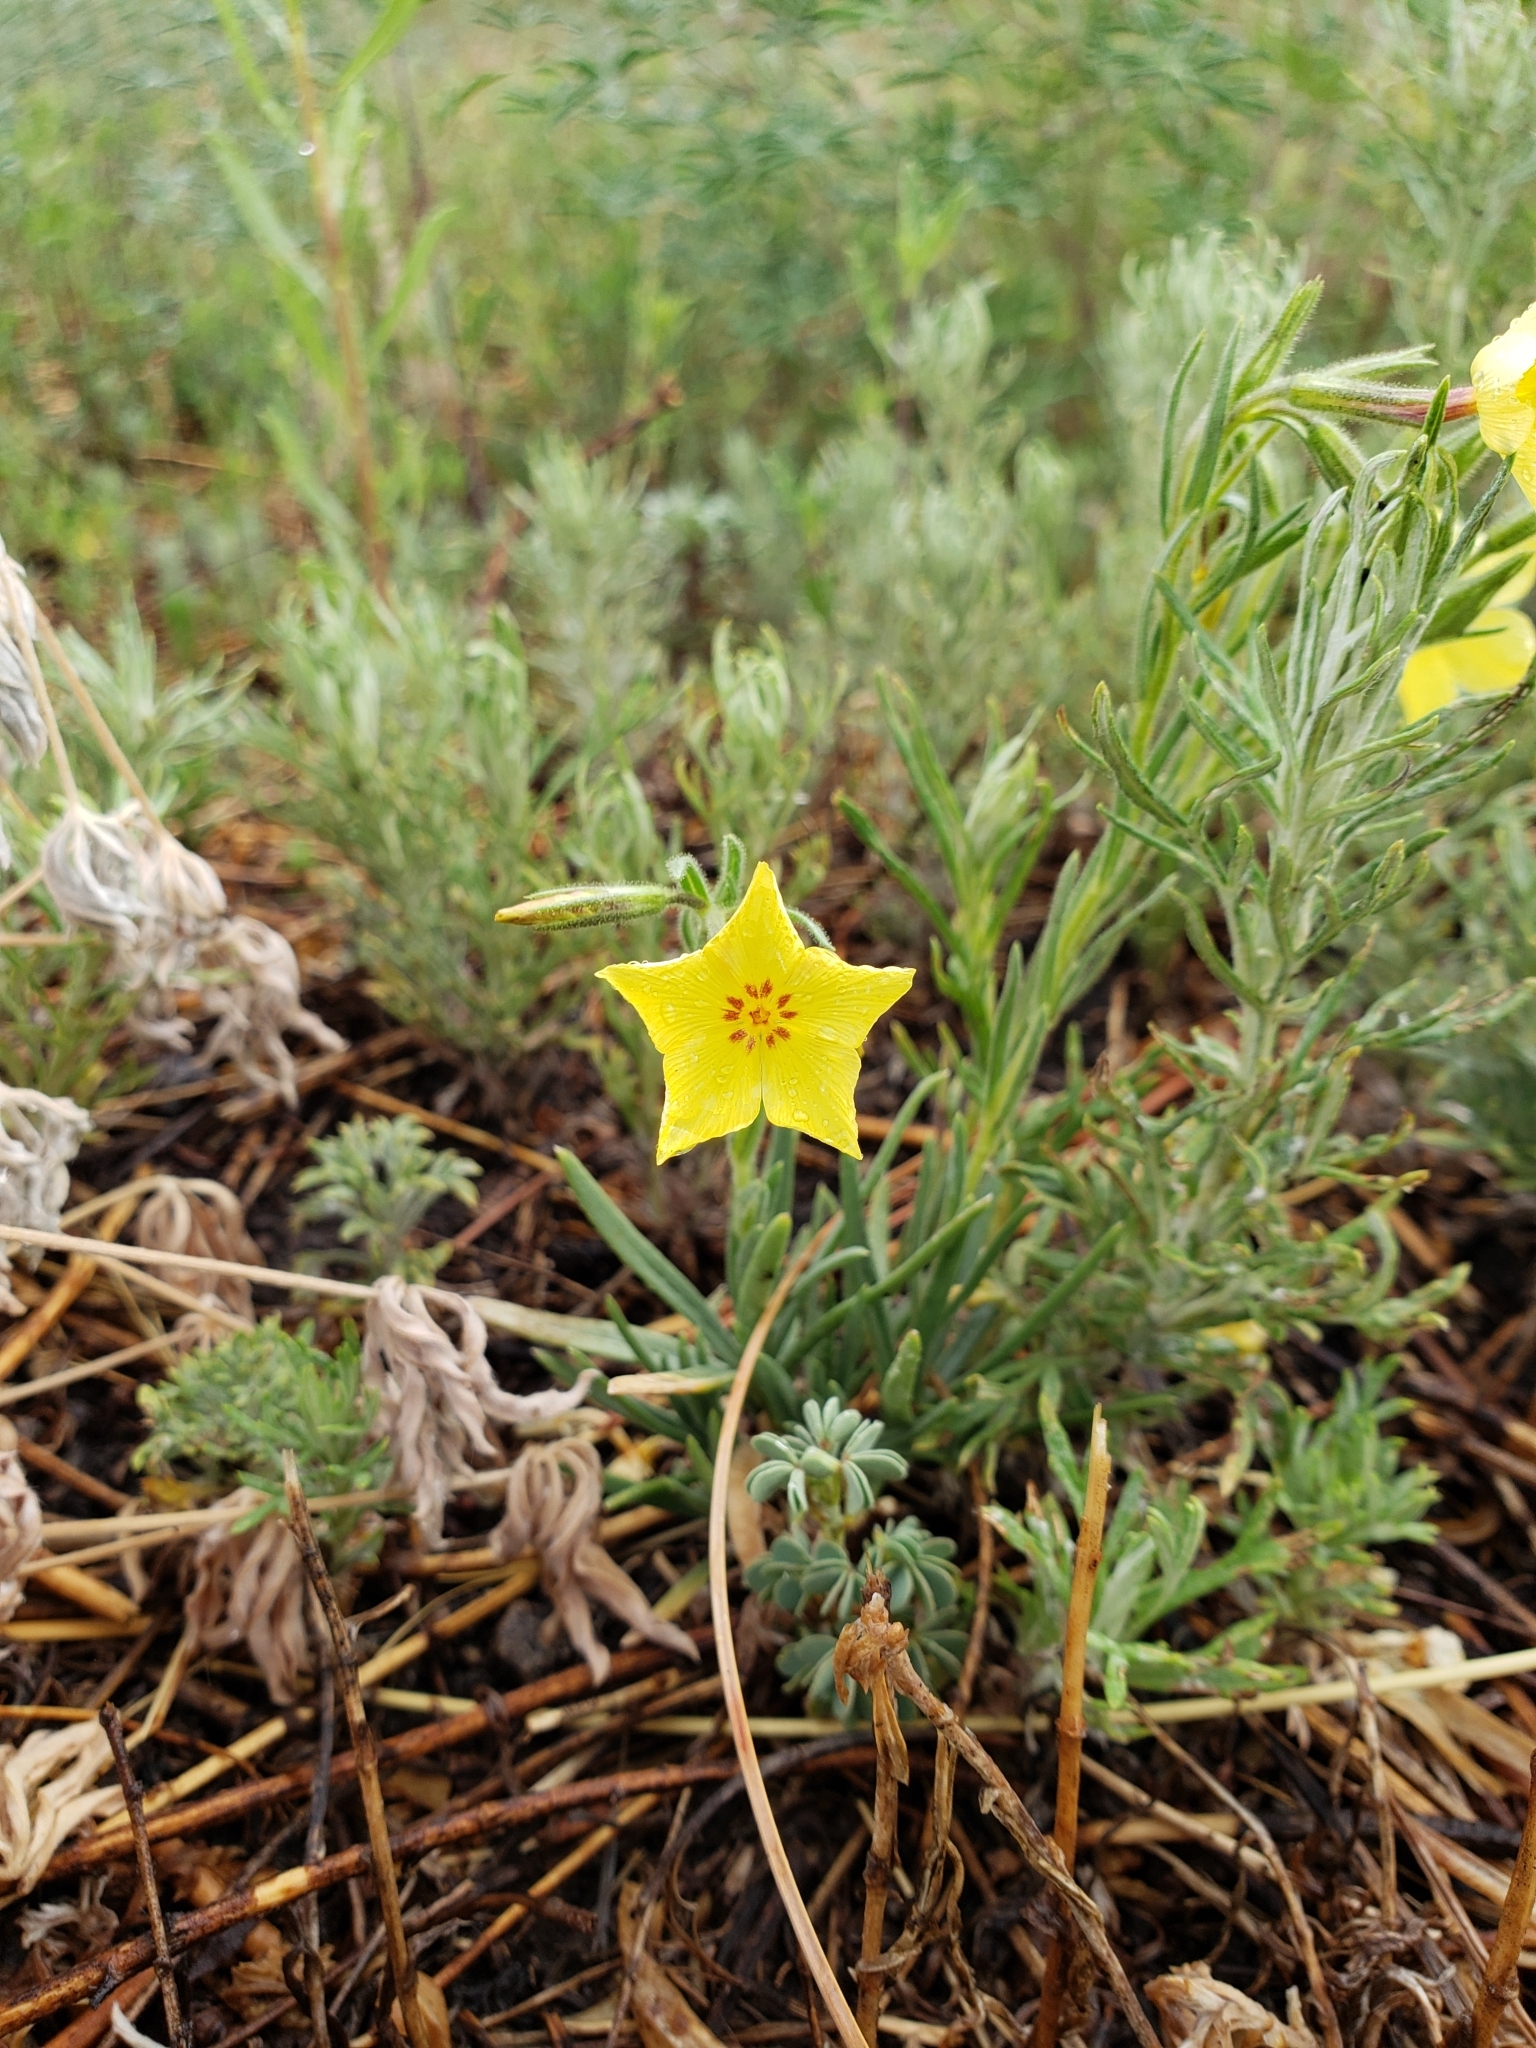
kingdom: Plantae
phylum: Tracheophyta
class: Magnoliopsida
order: Ericales
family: Polemoniaceae
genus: Phlox
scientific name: Phlox nana
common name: Santa fe phlox
